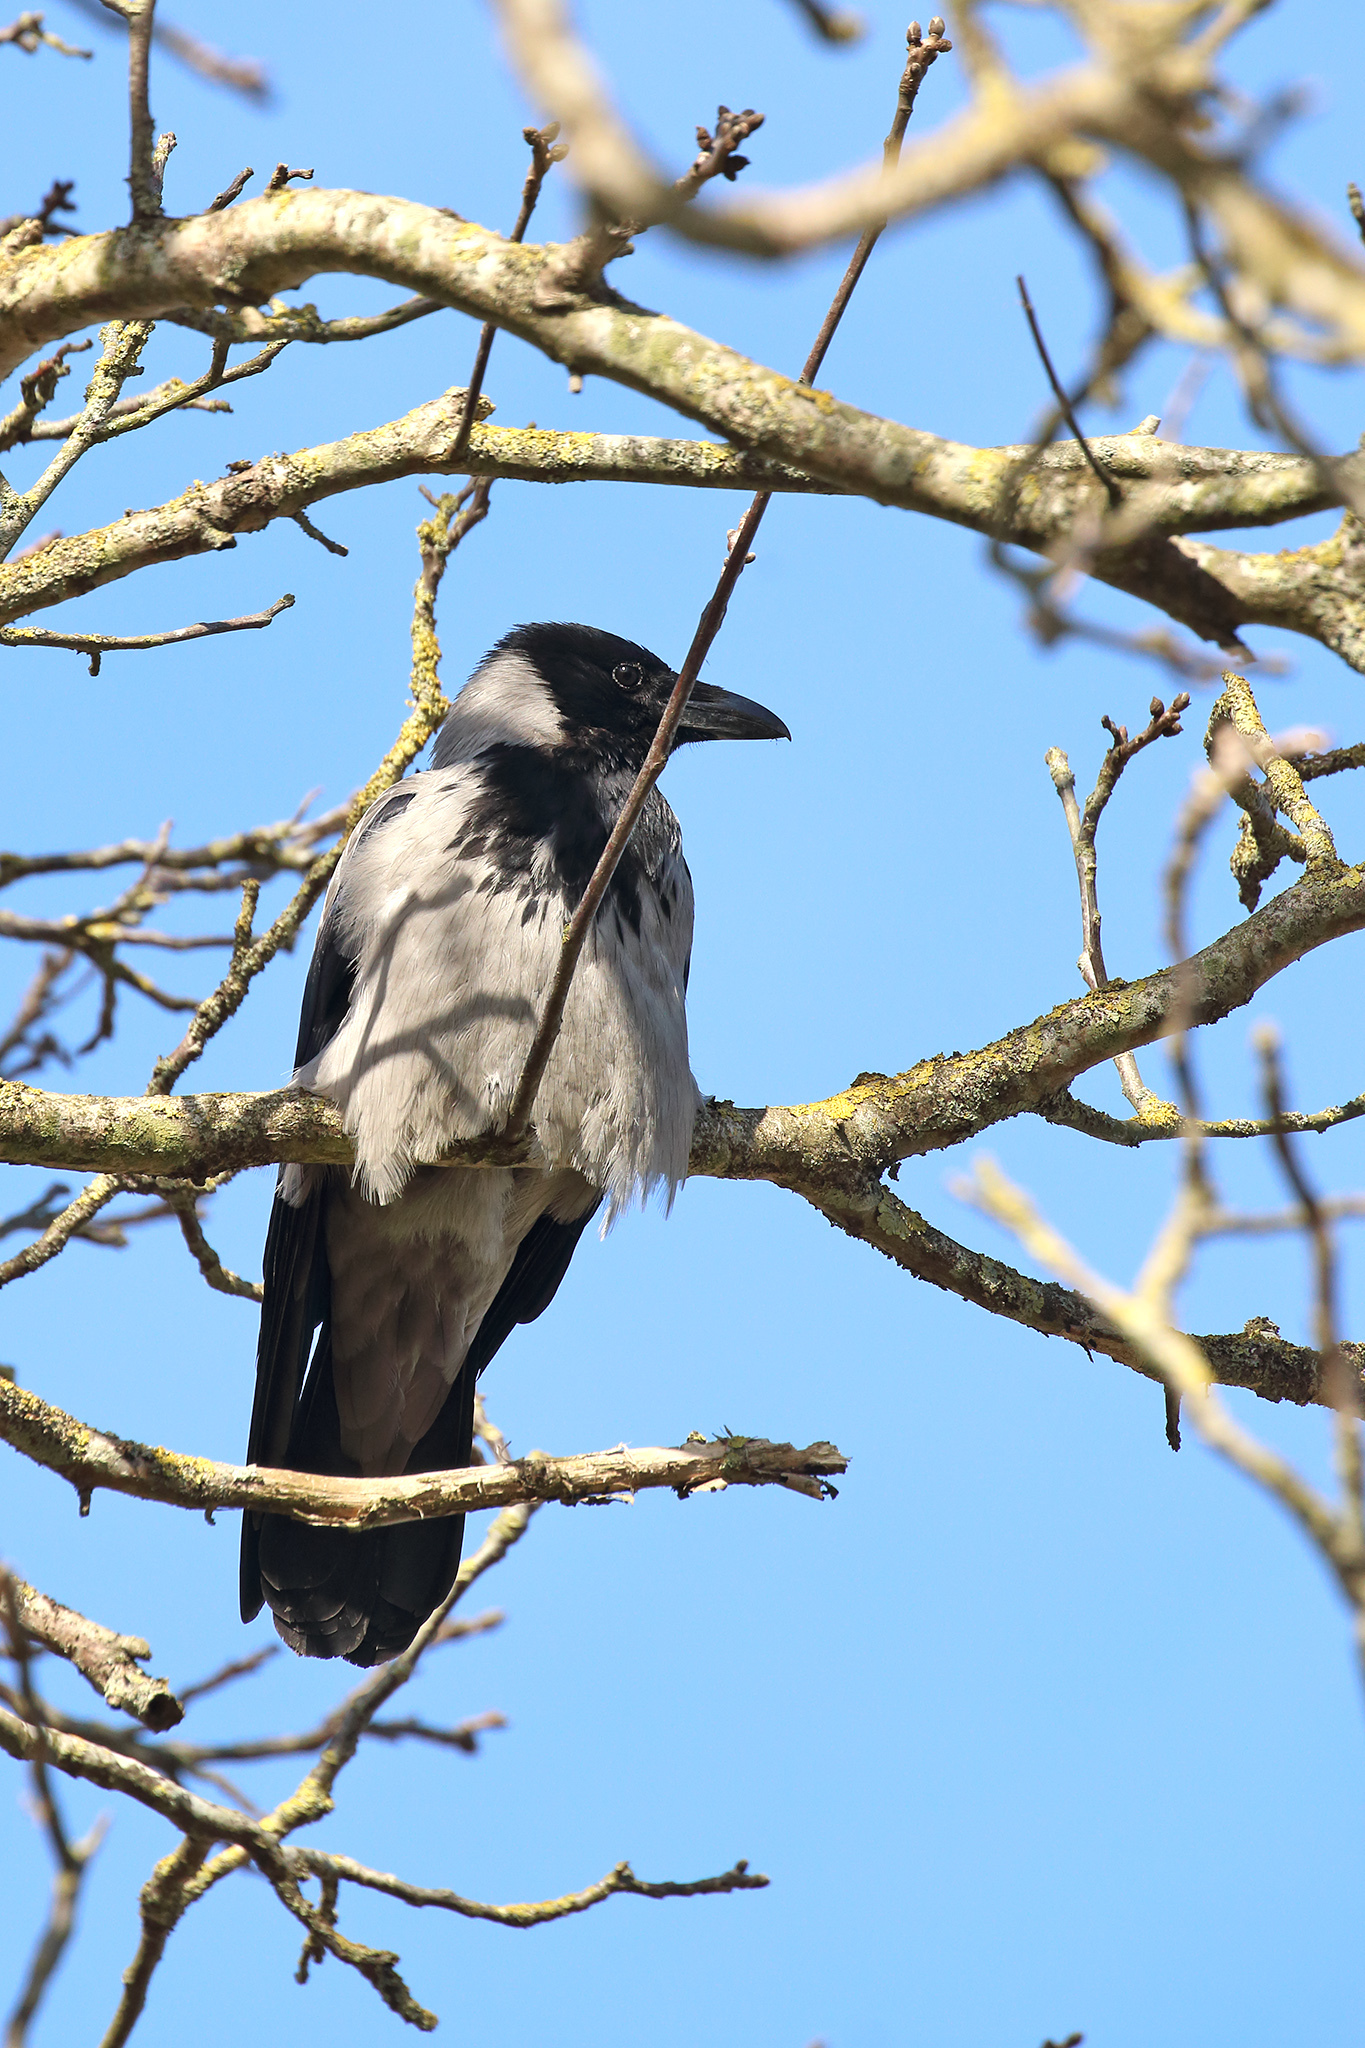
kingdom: Animalia
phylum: Chordata
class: Aves
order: Passeriformes
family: Corvidae
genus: Corvus
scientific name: Corvus cornix
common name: Hooded crow
